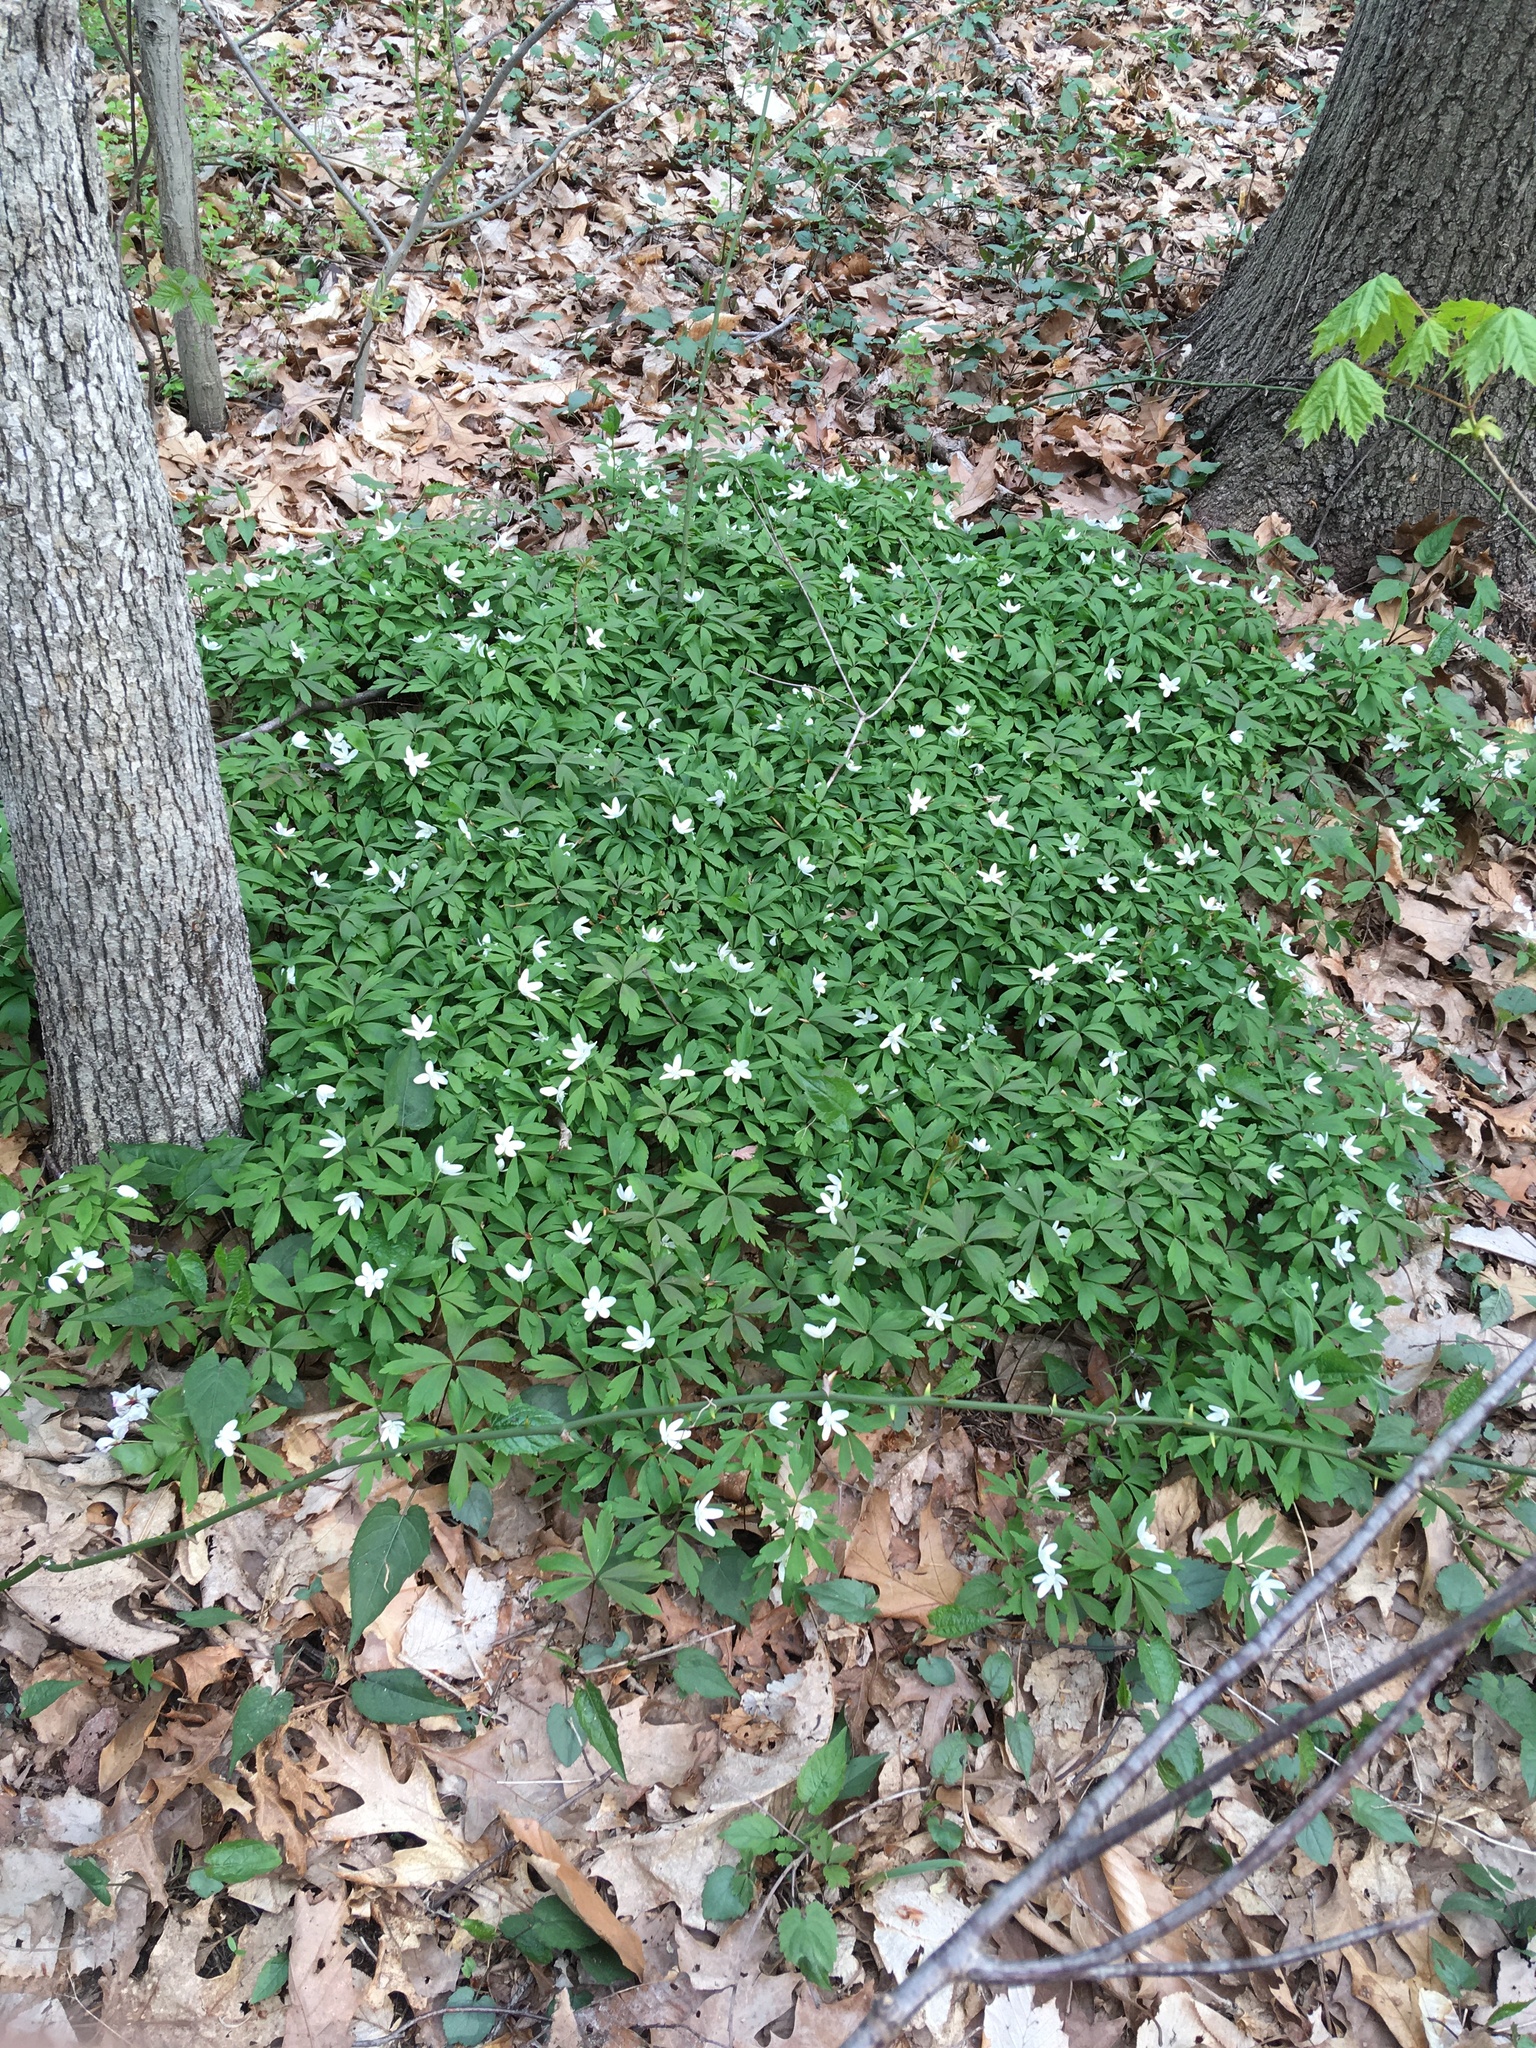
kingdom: Plantae
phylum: Tracheophyta
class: Magnoliopsida
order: Ranunculales
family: Ranunculaceae
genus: Anemone
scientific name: Anemone quinquefolia
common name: Wood anemone
